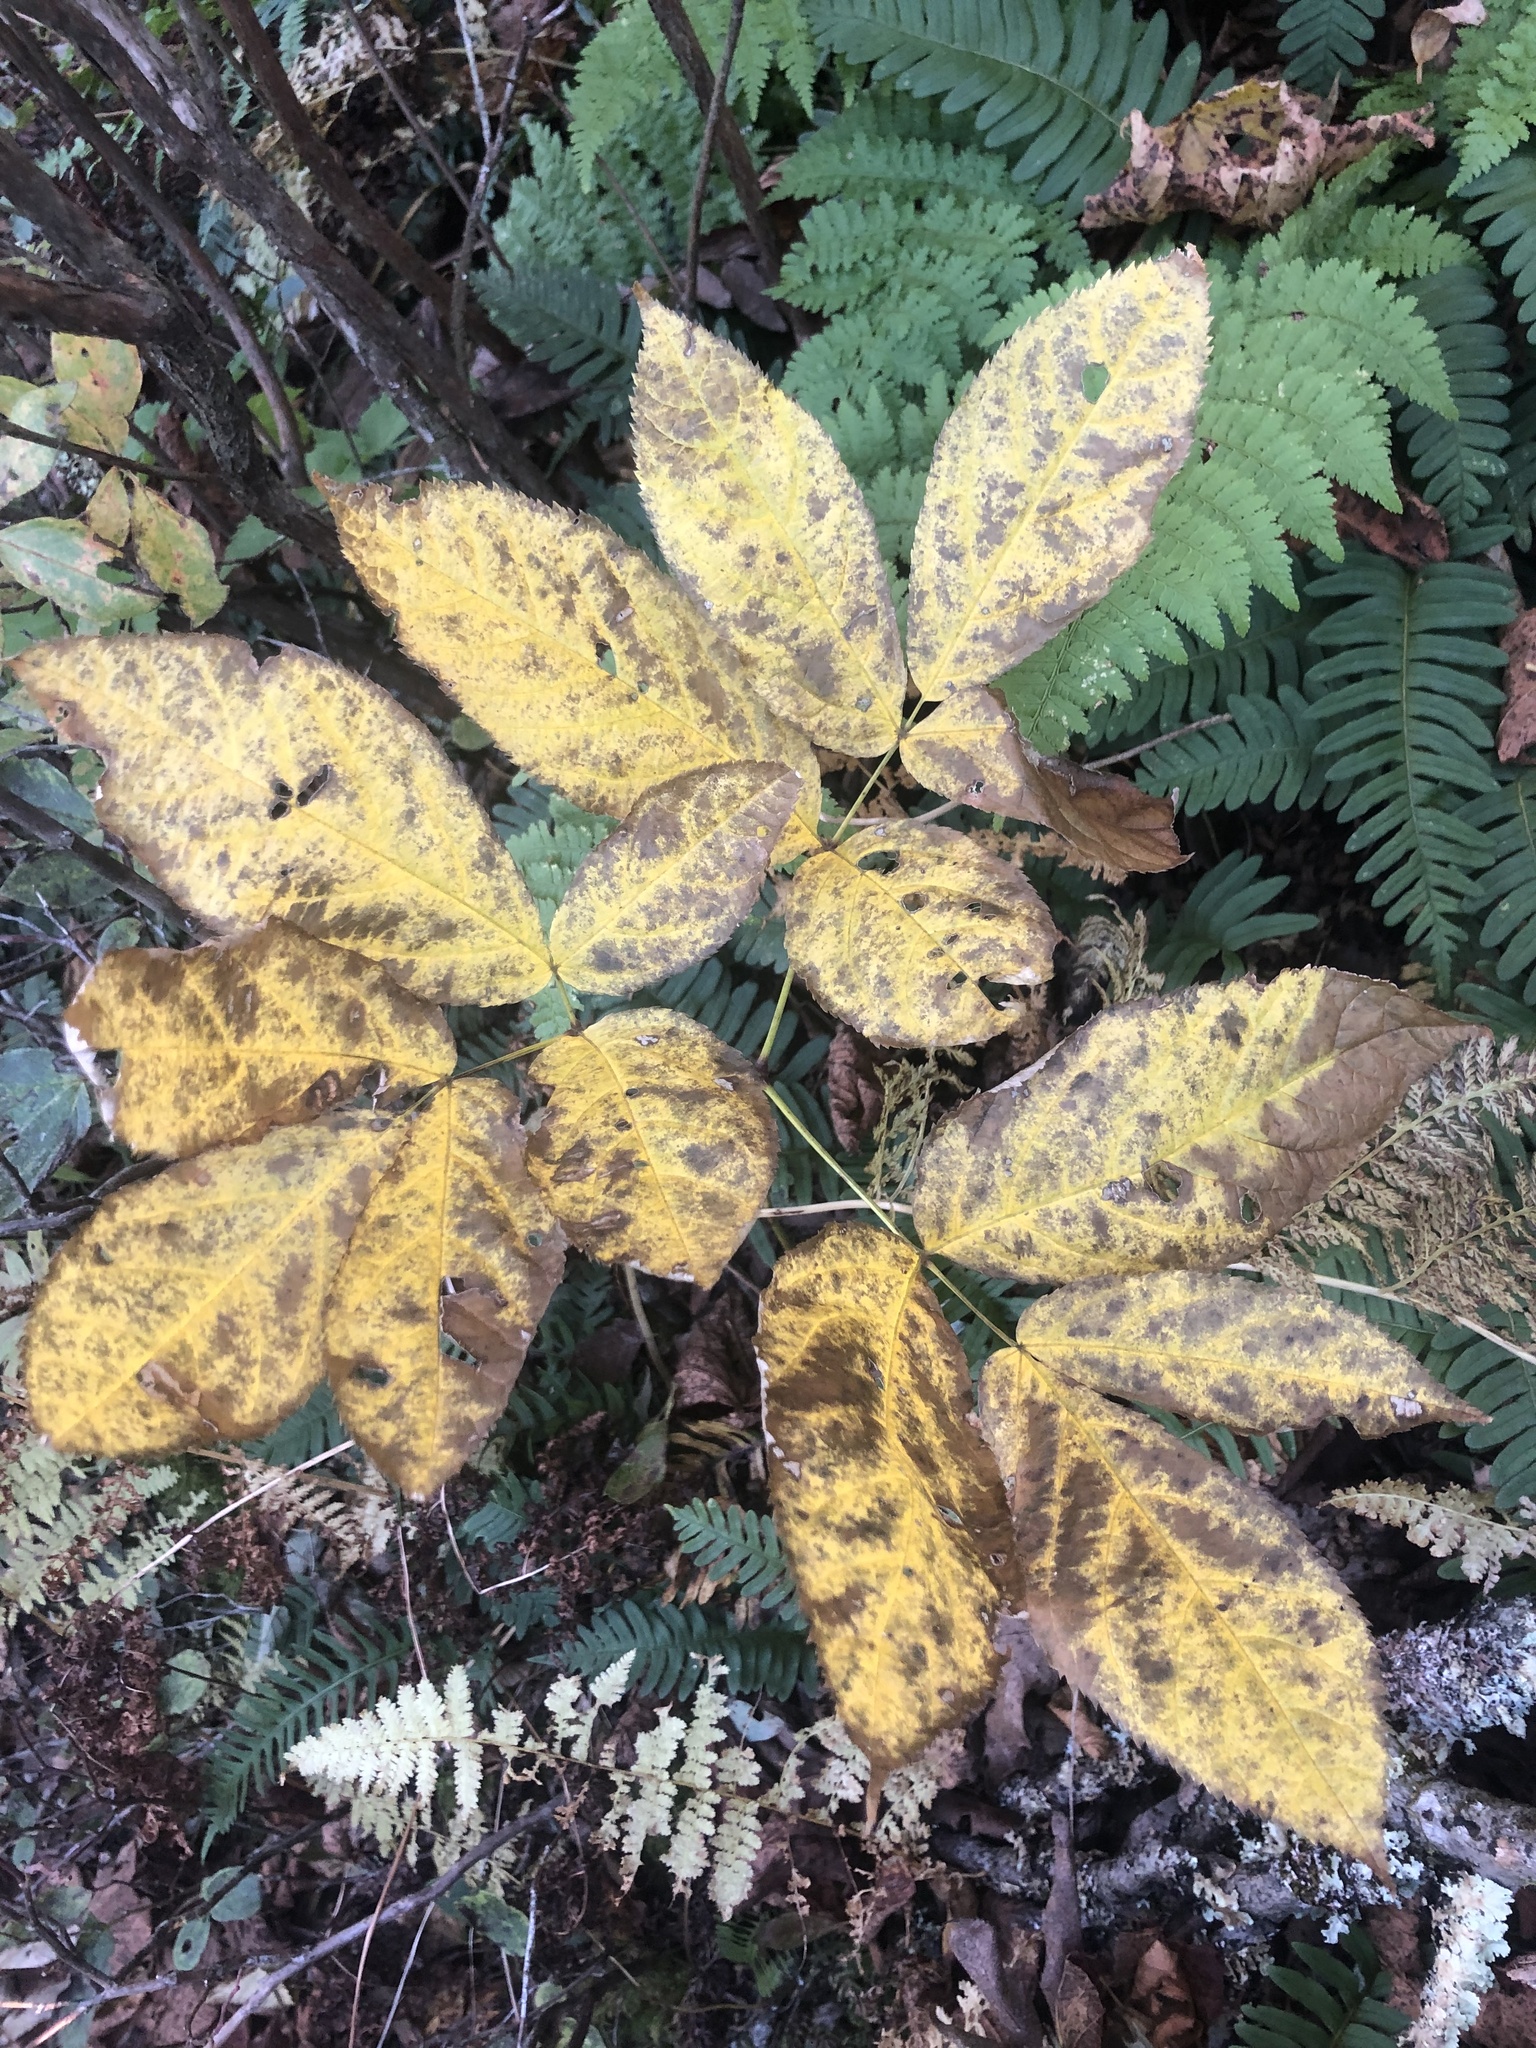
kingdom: Plantae
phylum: Tracheophyta
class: Magnoliopsida
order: Apiales
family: Araliaceae
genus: Aralia
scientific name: Aralia nudicaulis
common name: Wild sarsaparilla
